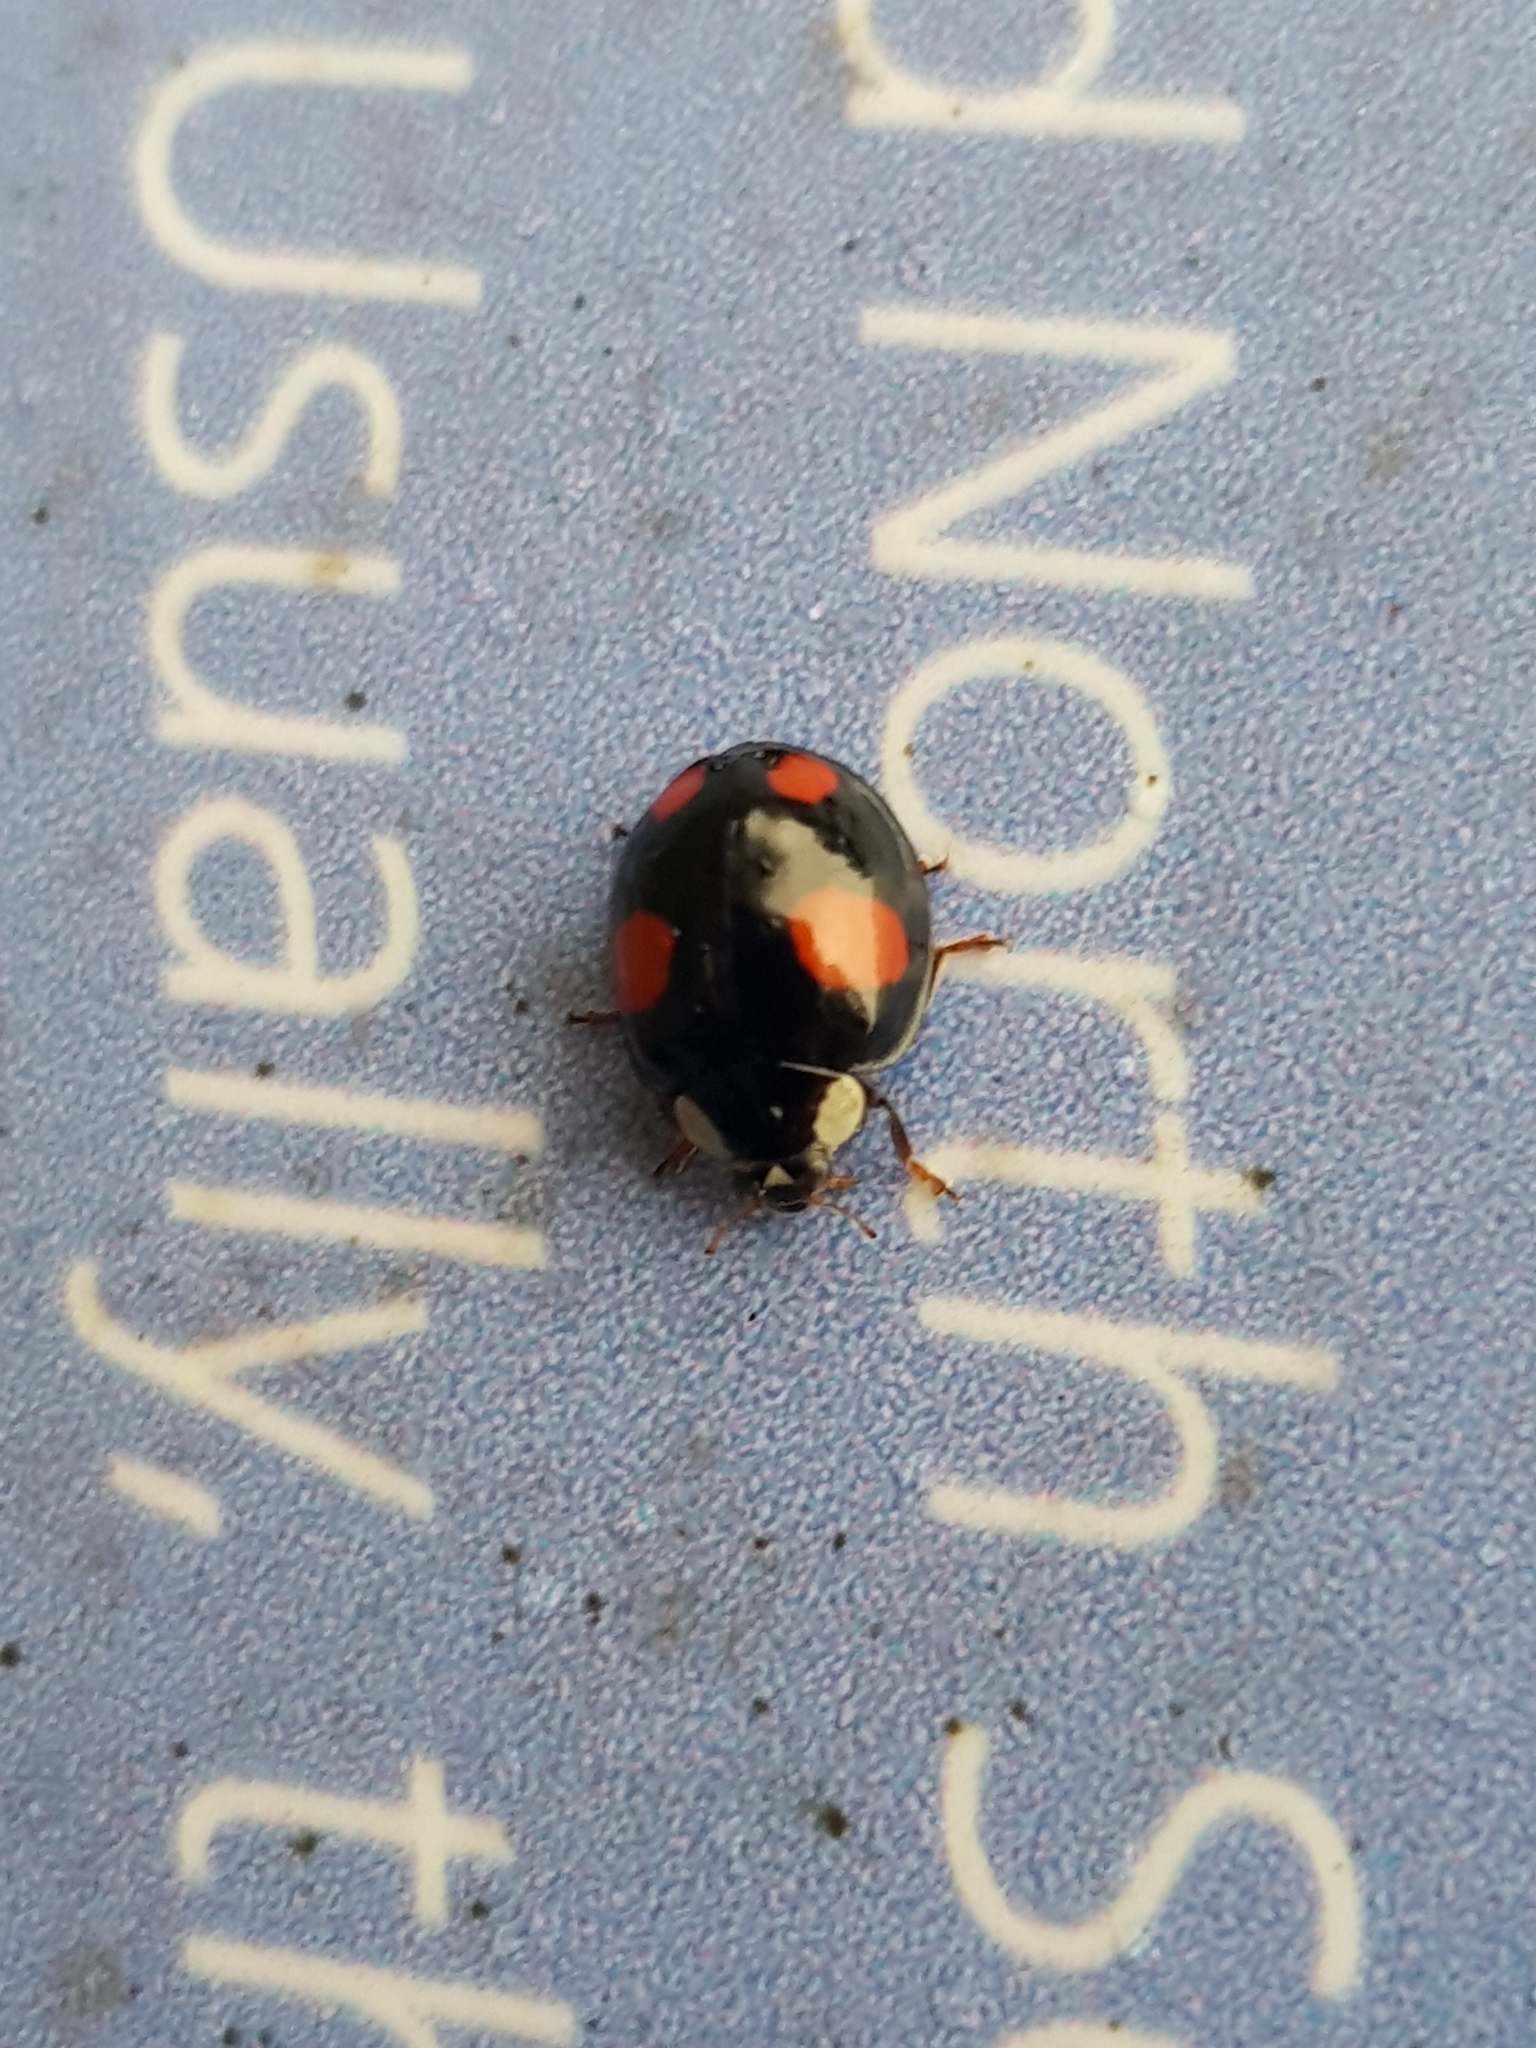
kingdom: Animalia
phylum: Arthropoda
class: Insecta
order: Coleoptera
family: Coccinellidae
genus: Harmonia
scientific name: Harmonia axyridis
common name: Harlequin ladybird
